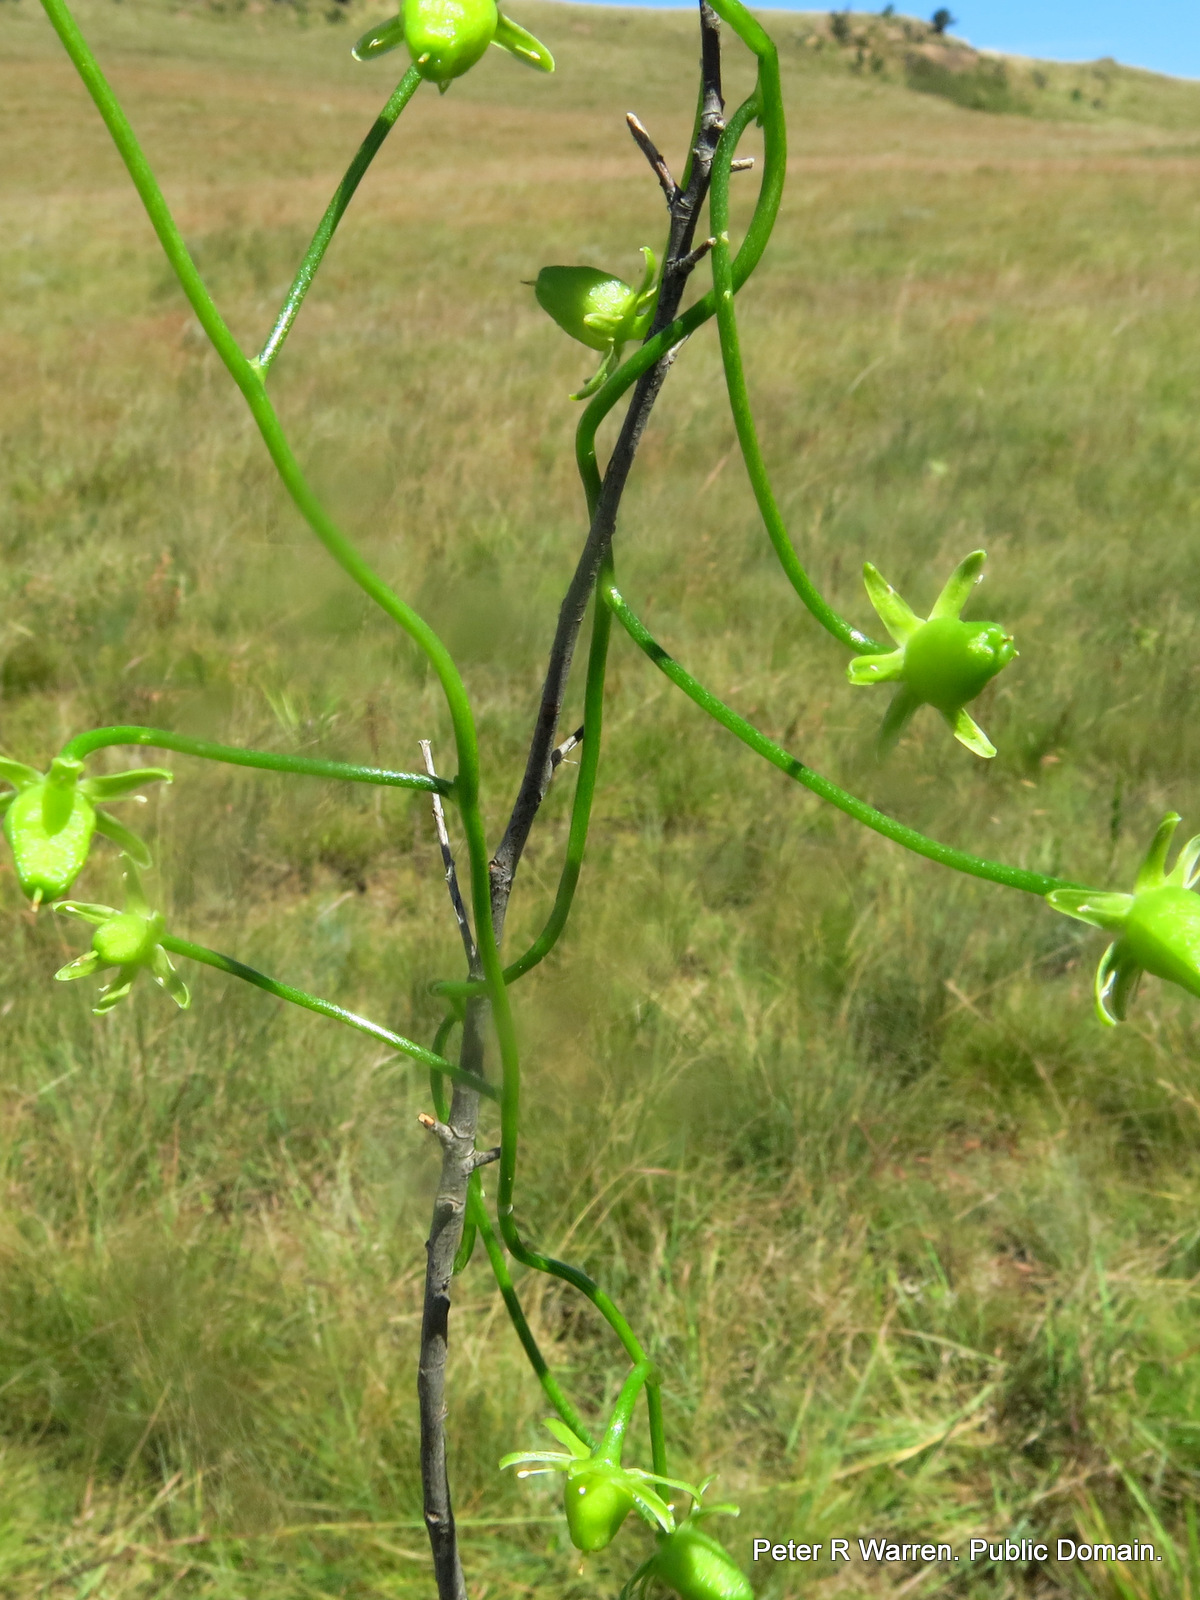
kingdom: Plantae
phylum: Tracheophyta
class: Liliopsida
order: Asparagales
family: Asparagaceae
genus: Bowiea
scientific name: Bowiea volubilis
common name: Climbing-onion
